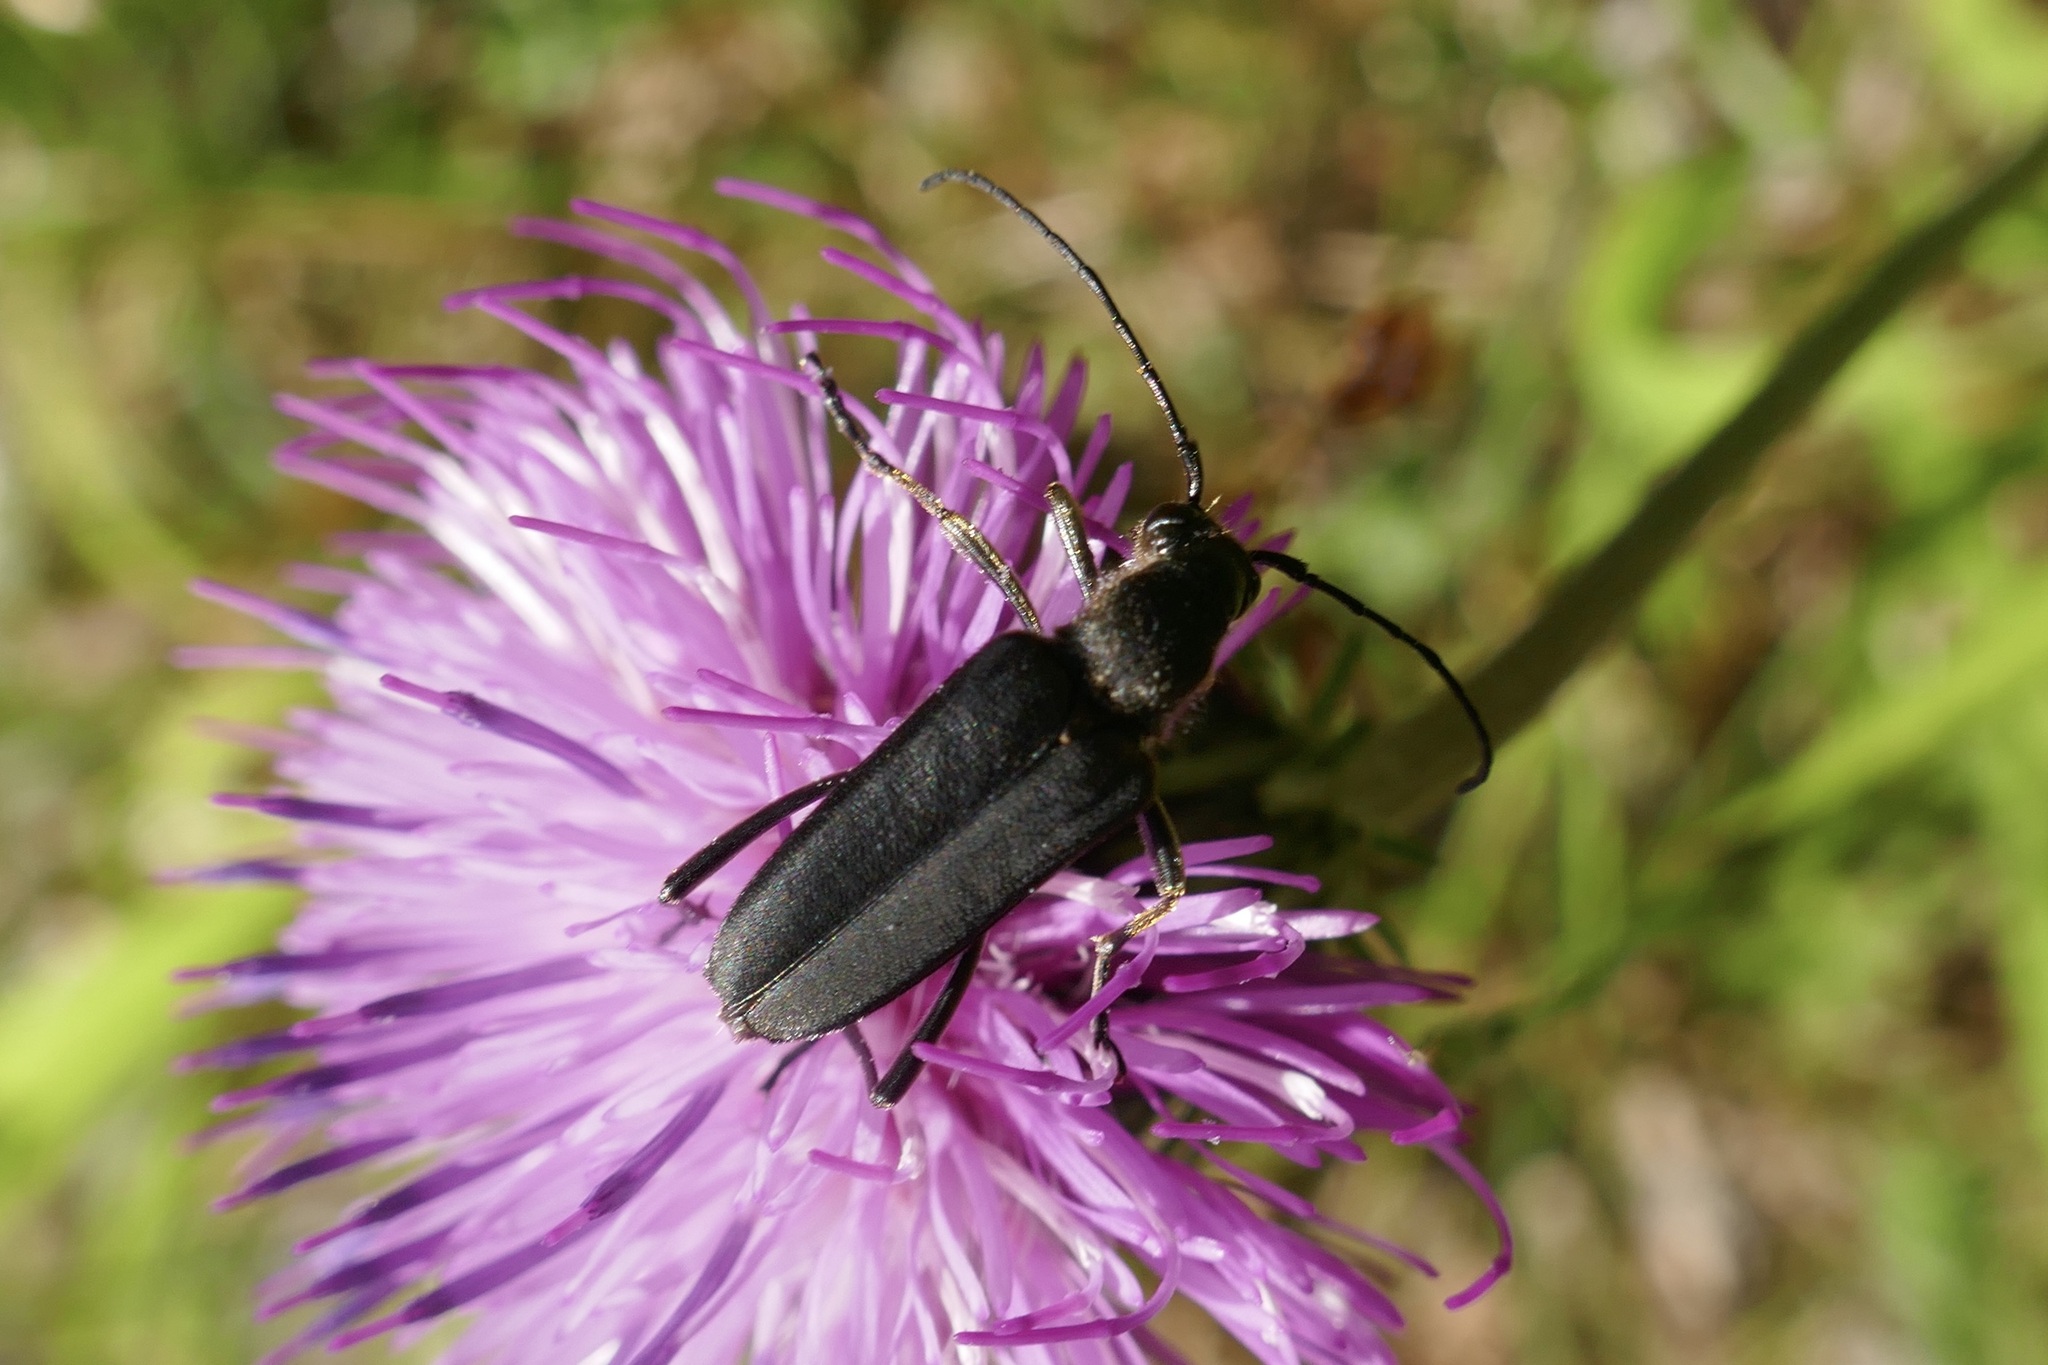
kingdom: Animalia
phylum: Arthropoda
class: Insecta
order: Coleoptera
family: Cerambycidae
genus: Anastrangalia
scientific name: Anastrangalia dubia
